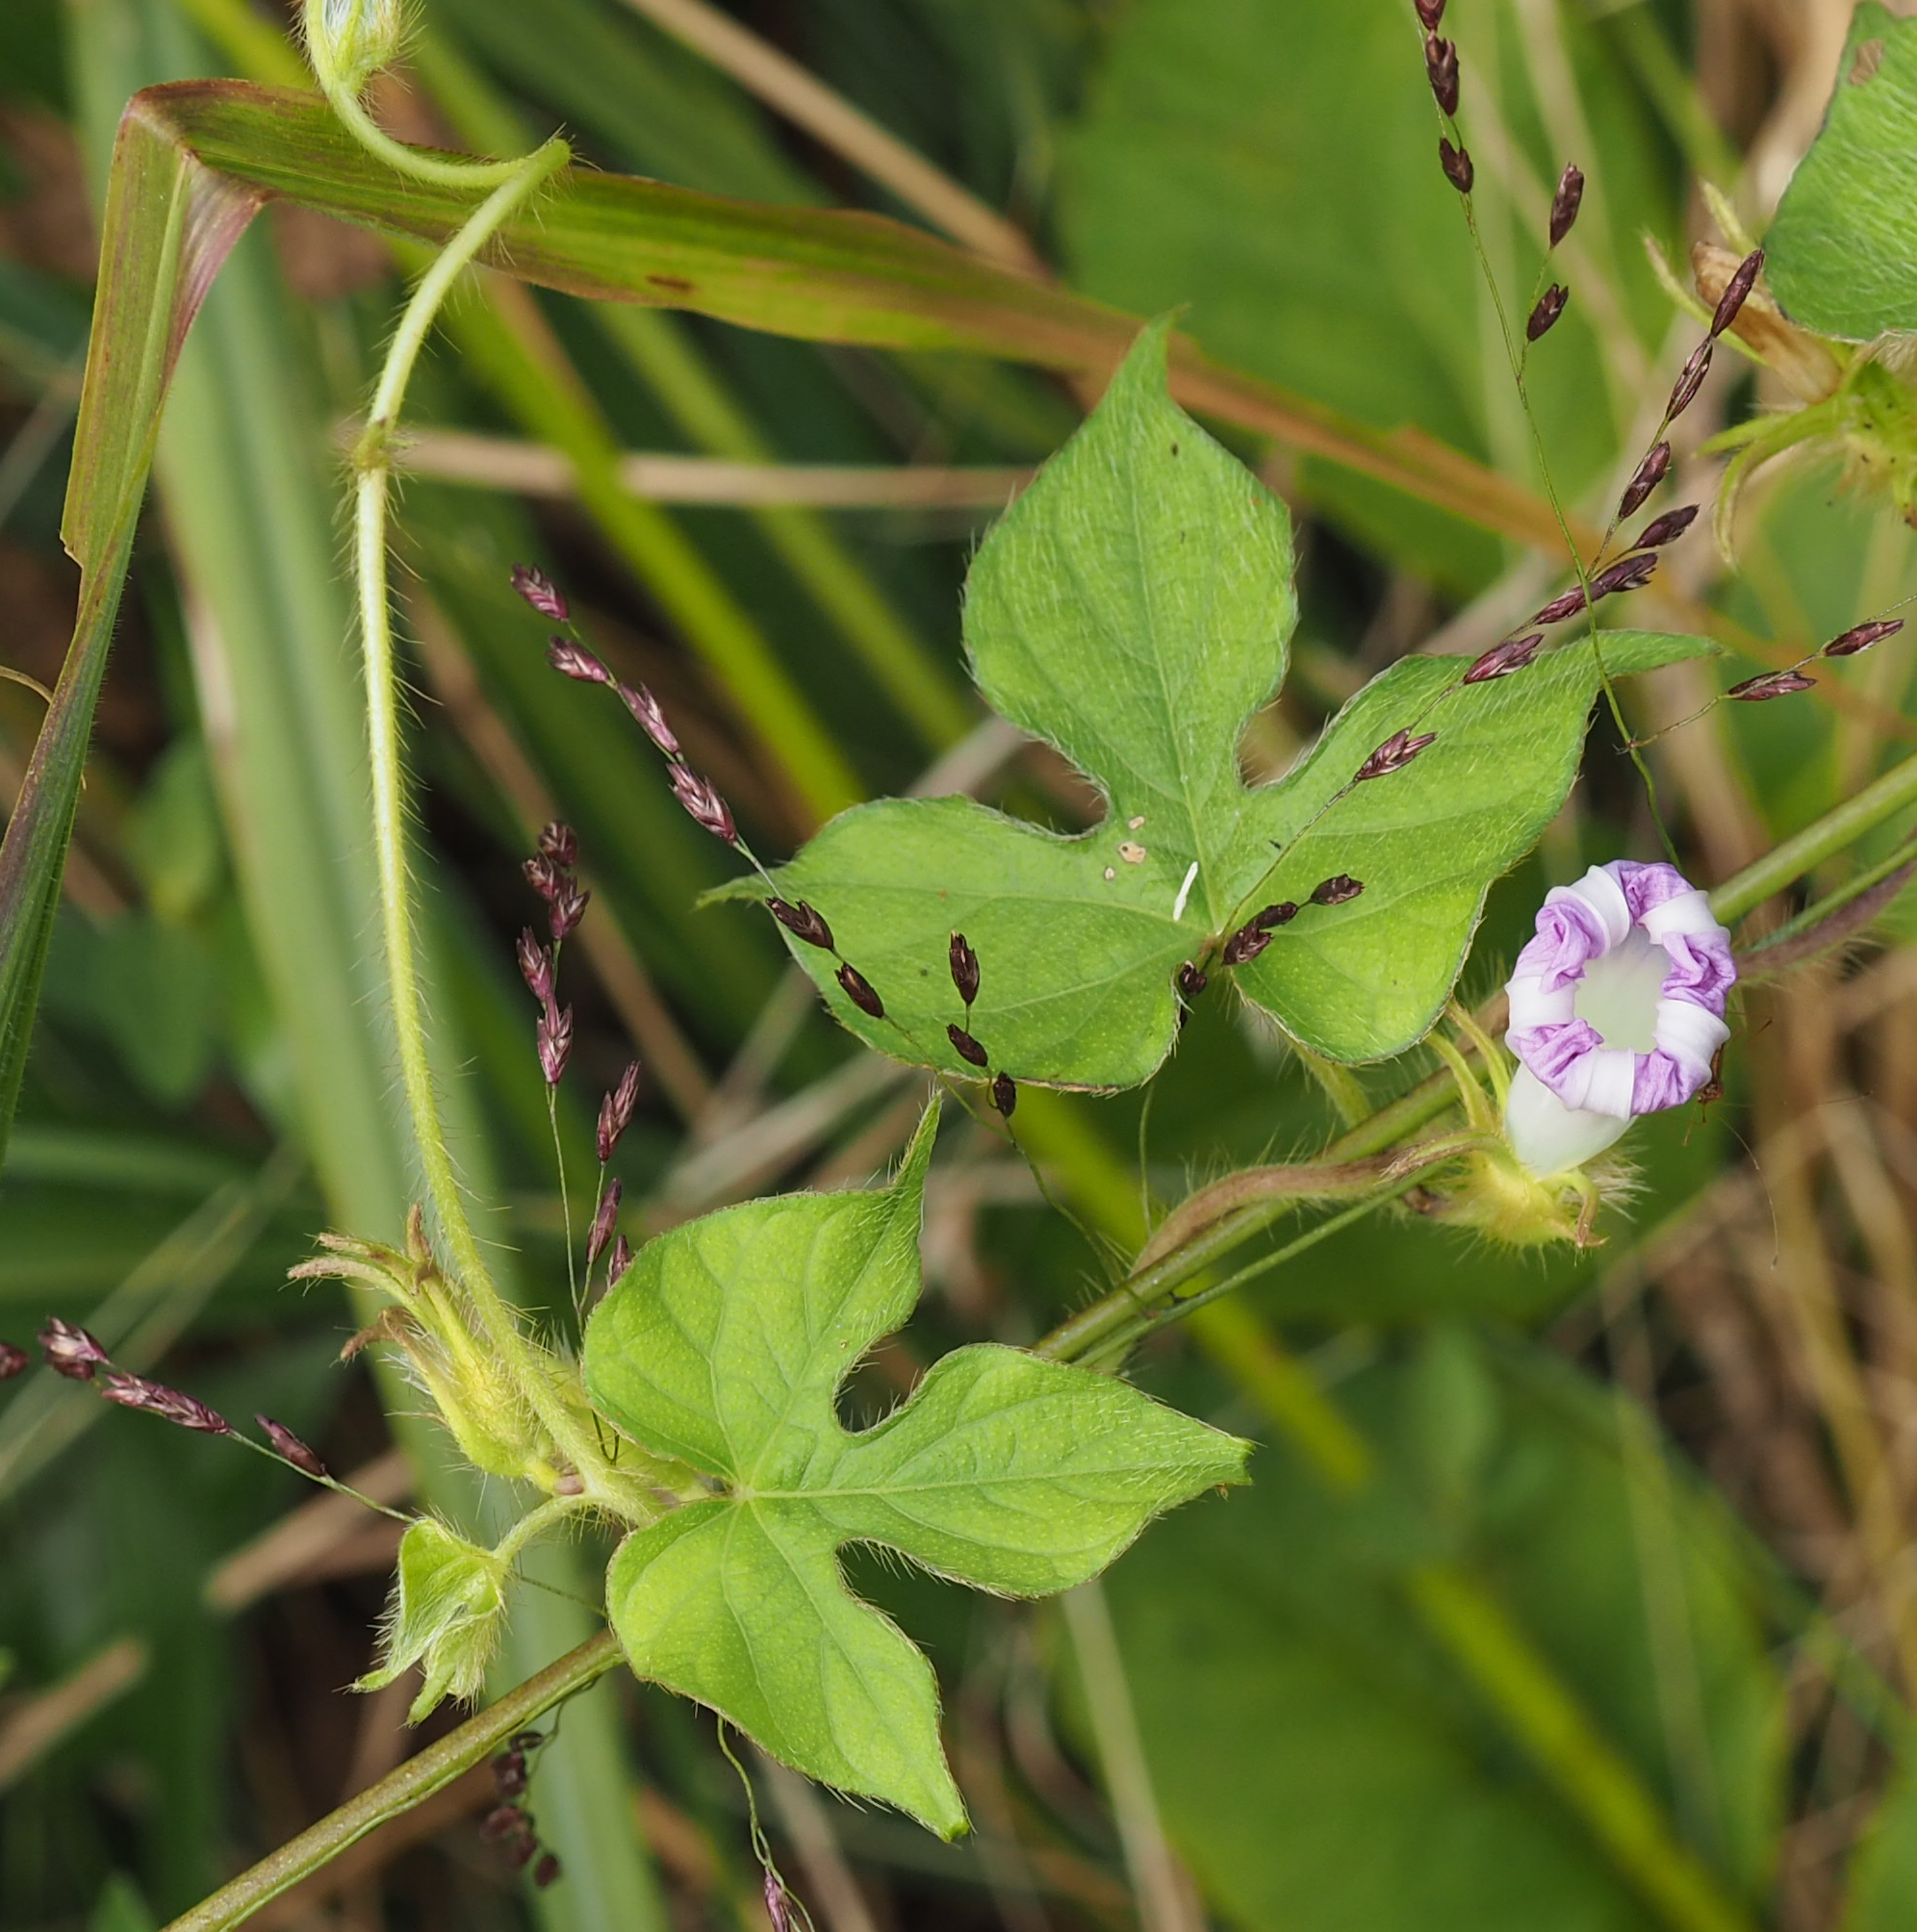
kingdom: Plantae
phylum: Tracheophyta
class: Magnoliopsida
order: Solanales
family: Convolvulaceae
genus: Ipomoea
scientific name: Ipomoea hederacea
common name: Ivy-leaved morning-glory
